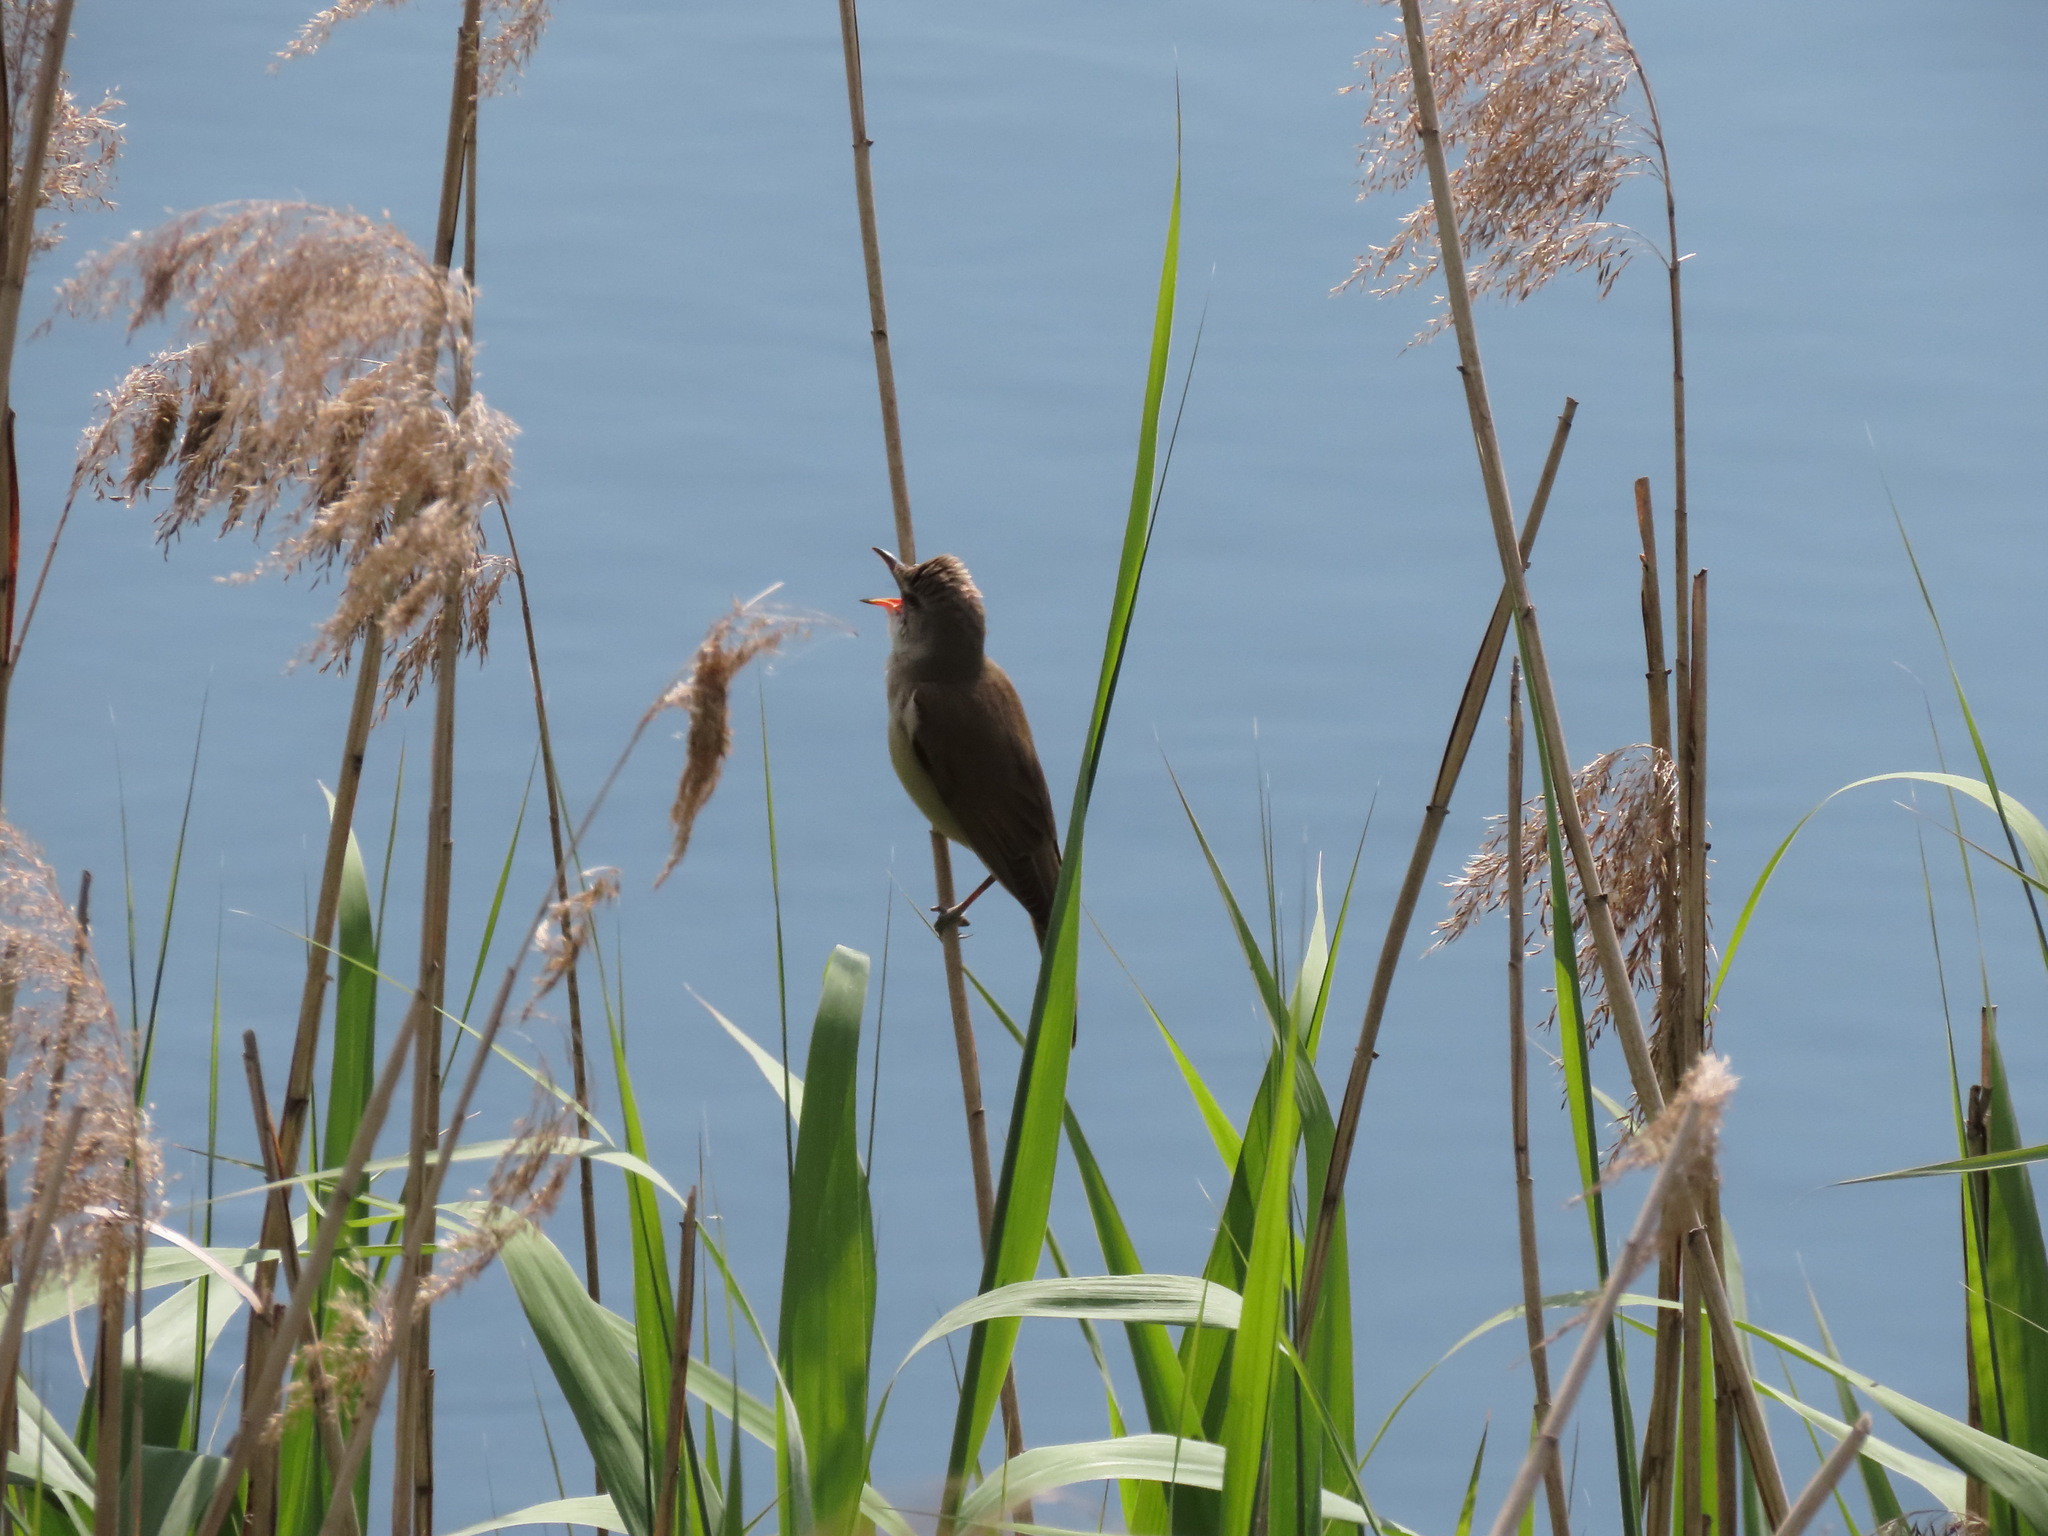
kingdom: Animalia
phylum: Chordata
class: Aves
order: Passeriformes
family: Acrocephalidae
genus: Acrocephalus
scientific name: Acrocephalus arundinaceus
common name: Great reed warbler
